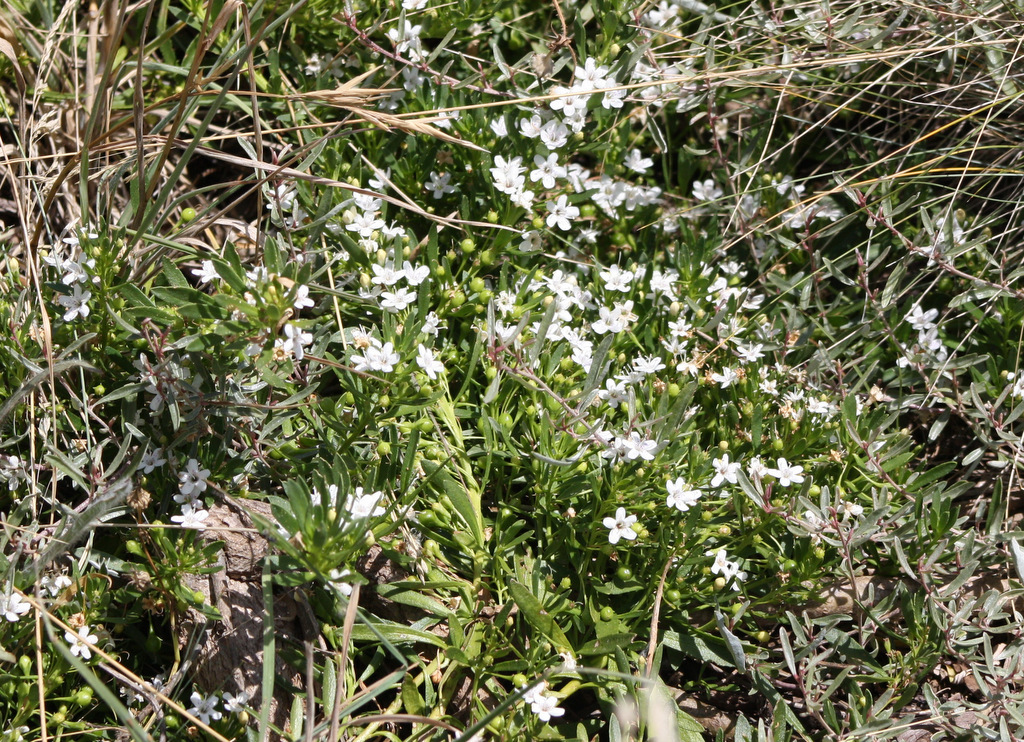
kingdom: Plantae
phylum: Tracheophyta
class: Magnoliopsida
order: Lamiales
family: Scrophulariaceae
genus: Myoporum
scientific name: Myoporum parvifolium
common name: Dwarf native-myrtle
